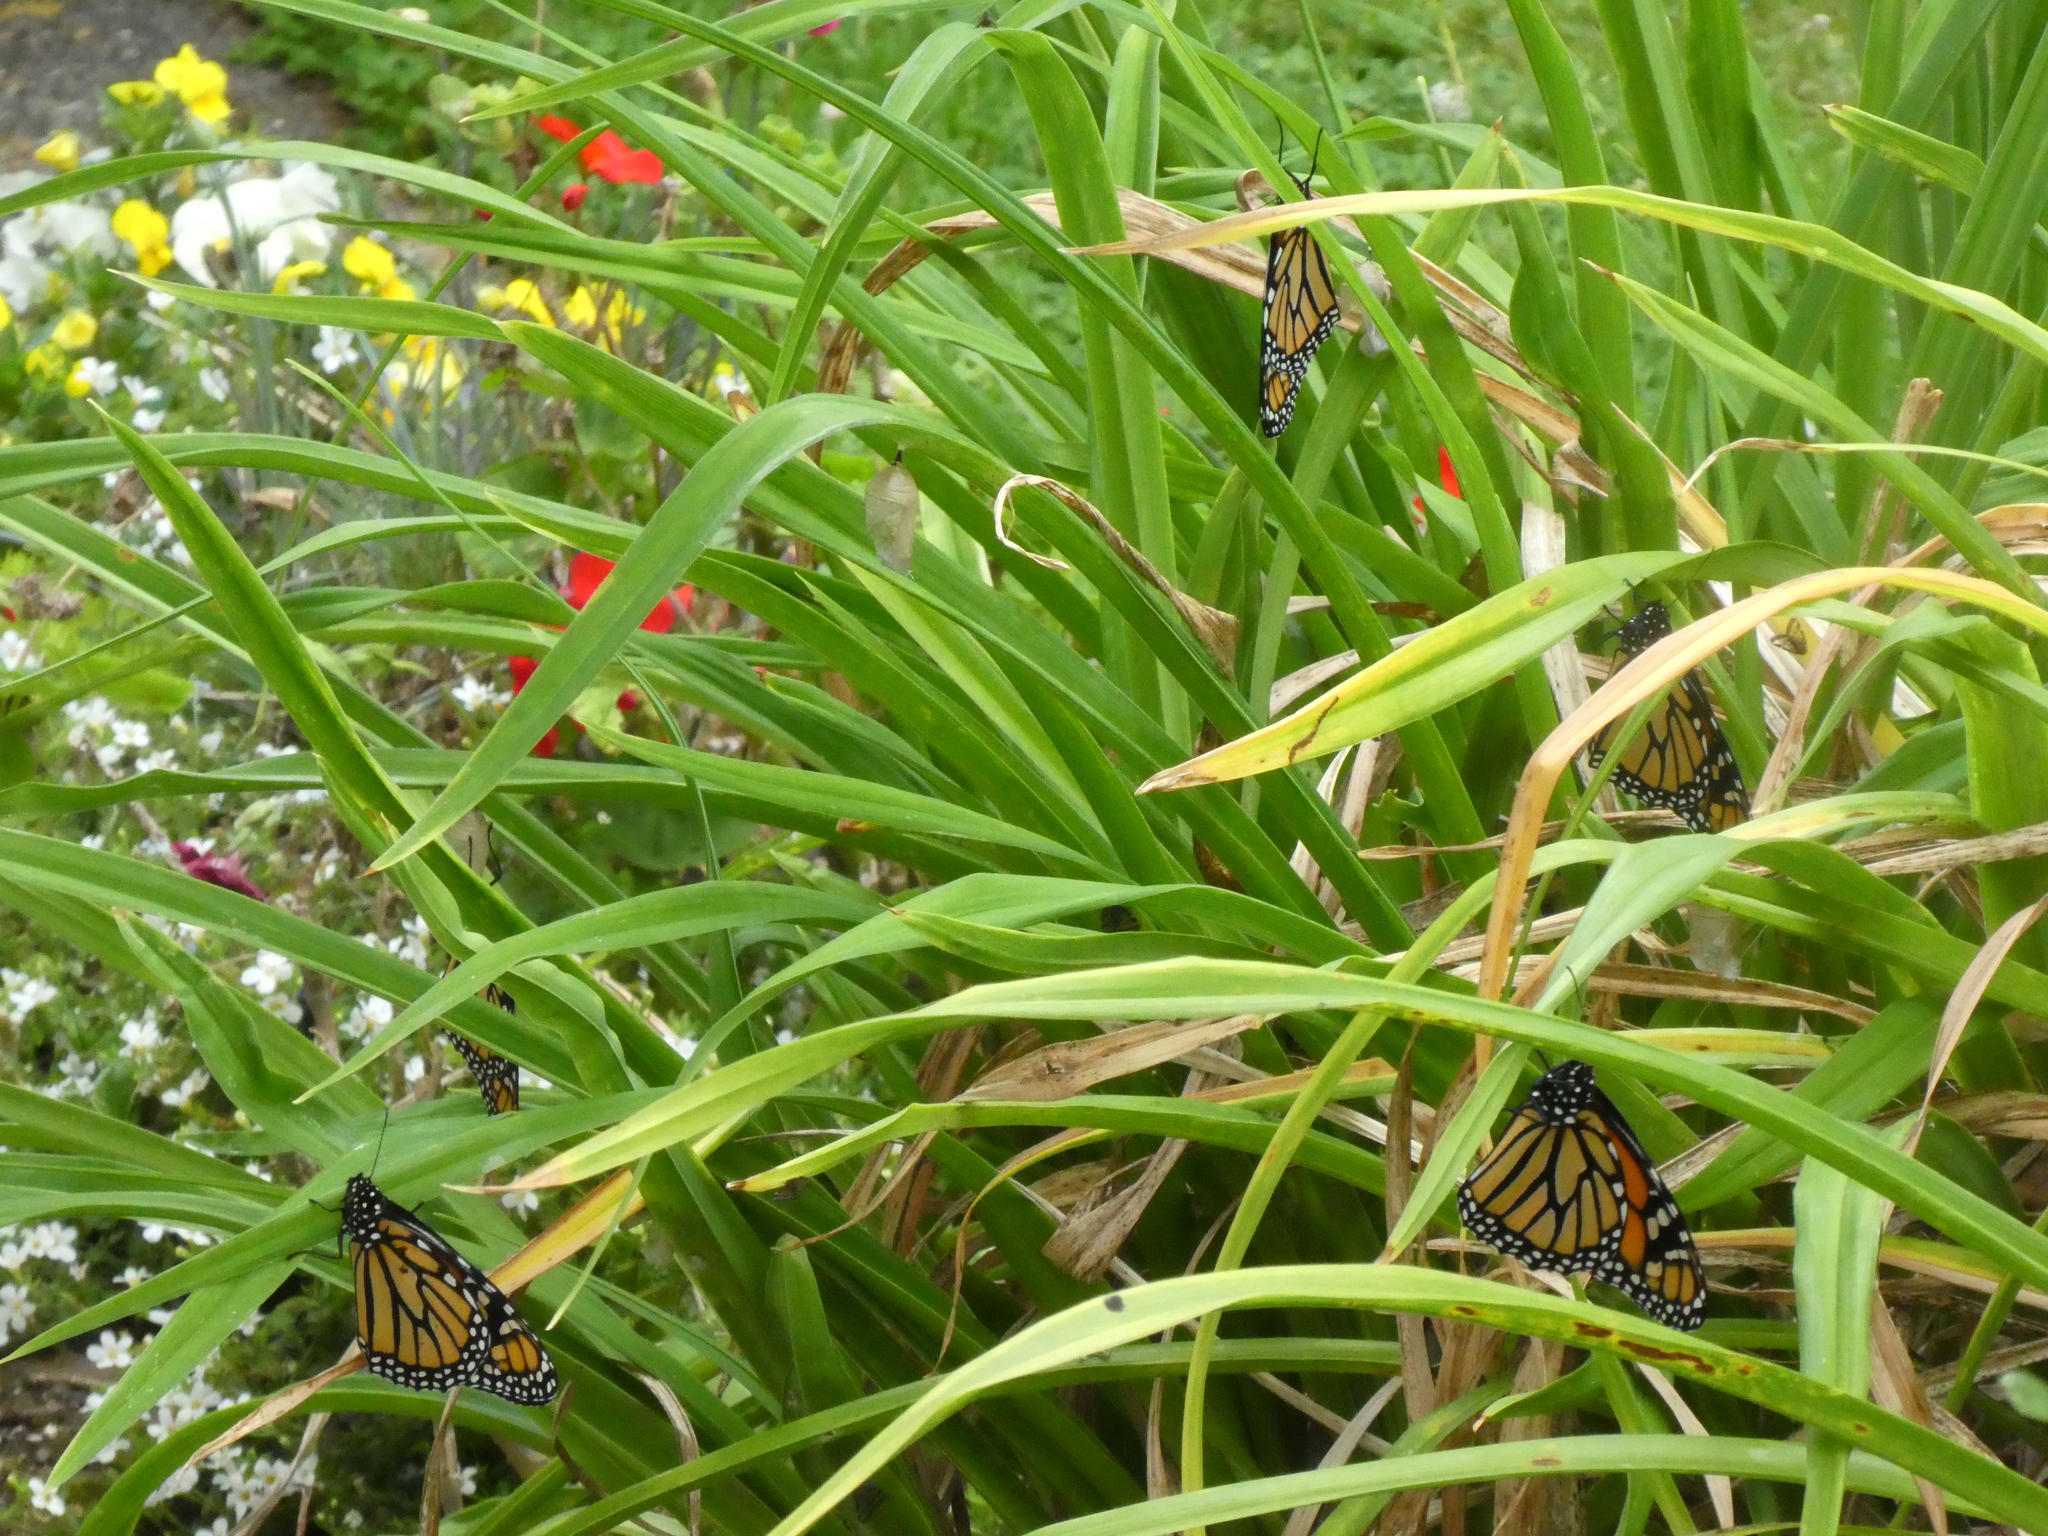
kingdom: Animalia
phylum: Arthropoda
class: Insecta
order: Lepidoptera
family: Nymphalidae
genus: Danaus
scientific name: Danaus plexippus
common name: Monarch
